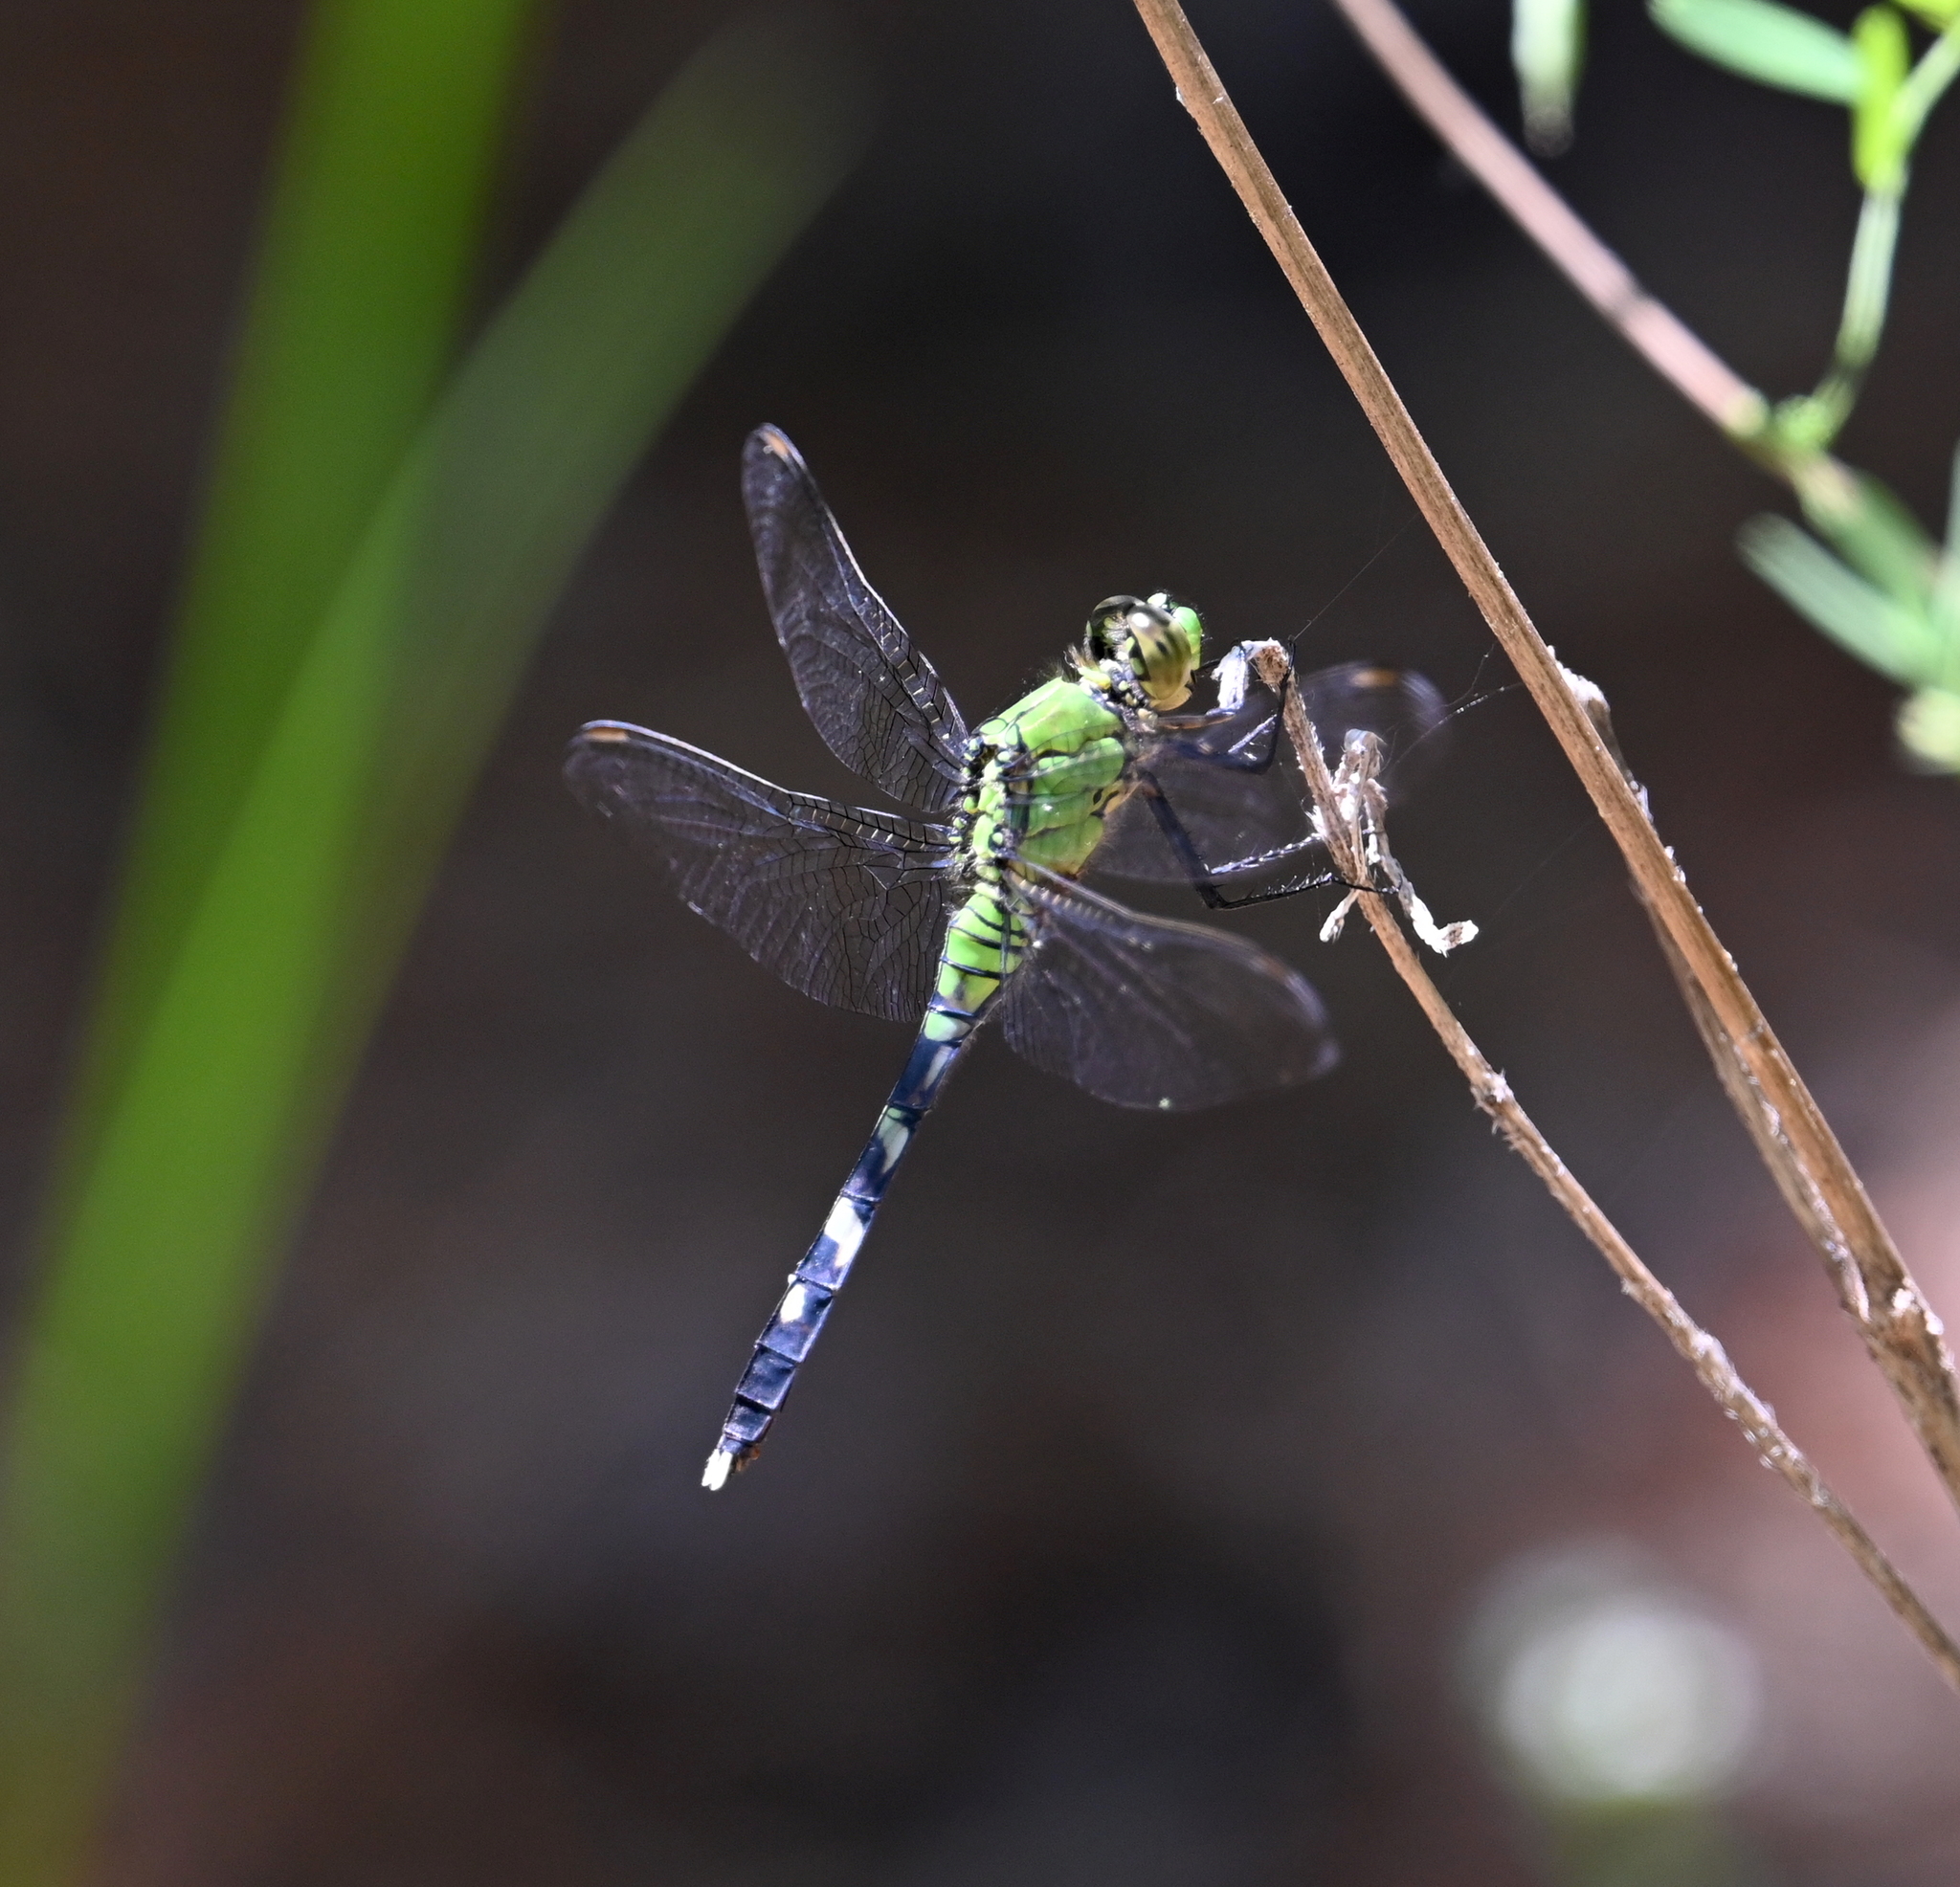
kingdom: Animalia
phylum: Arthropoda
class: Insecta
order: Odonata
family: Libellulidae
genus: Erythemis
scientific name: Erythemis simplicicollis
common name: Eastern pondhawk
